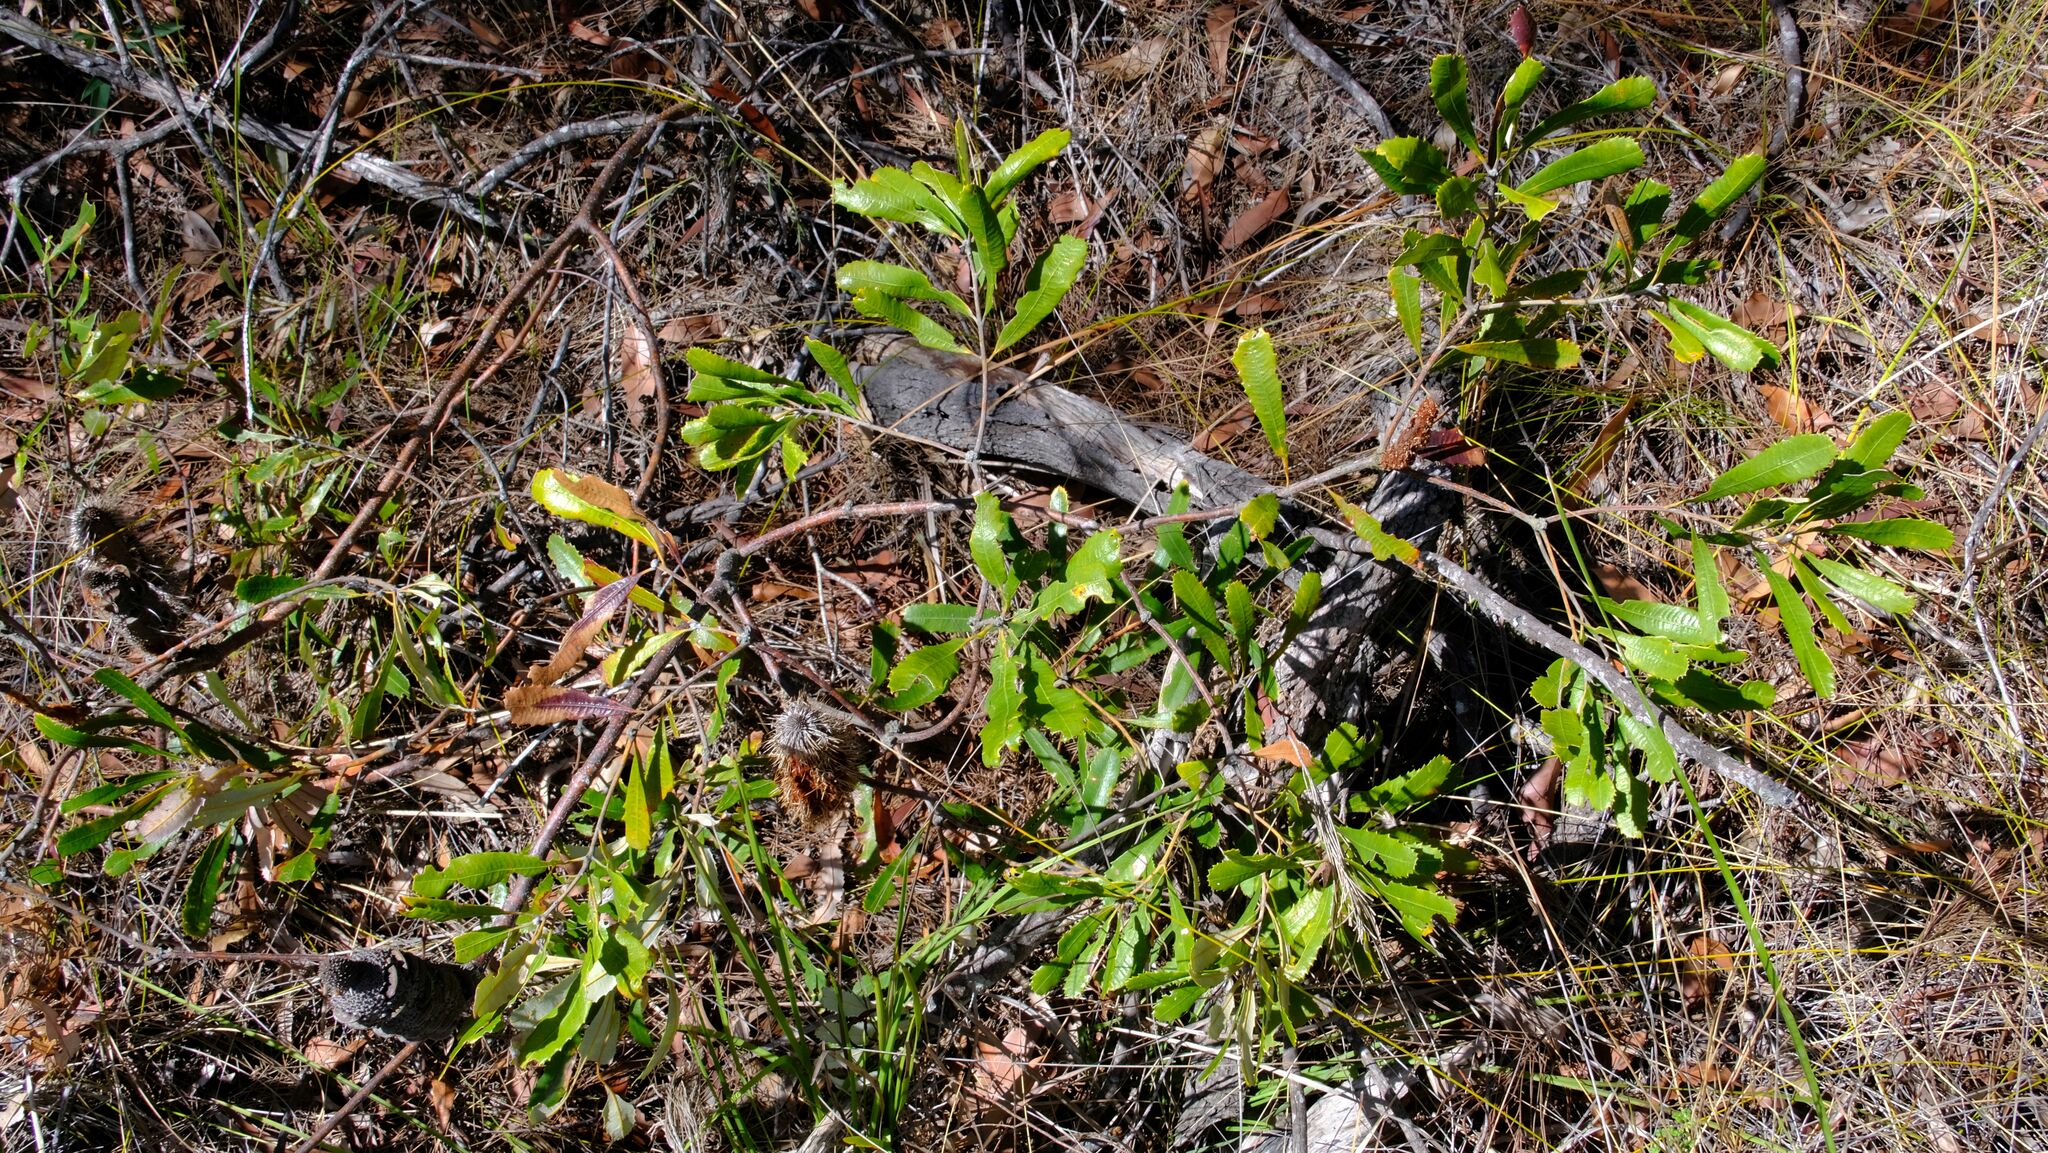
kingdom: Plantae
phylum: Tracheophyta
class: Magnoliopsida
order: Proteales
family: Proteaceae
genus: Banksia
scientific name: Banksia oblongifolia
